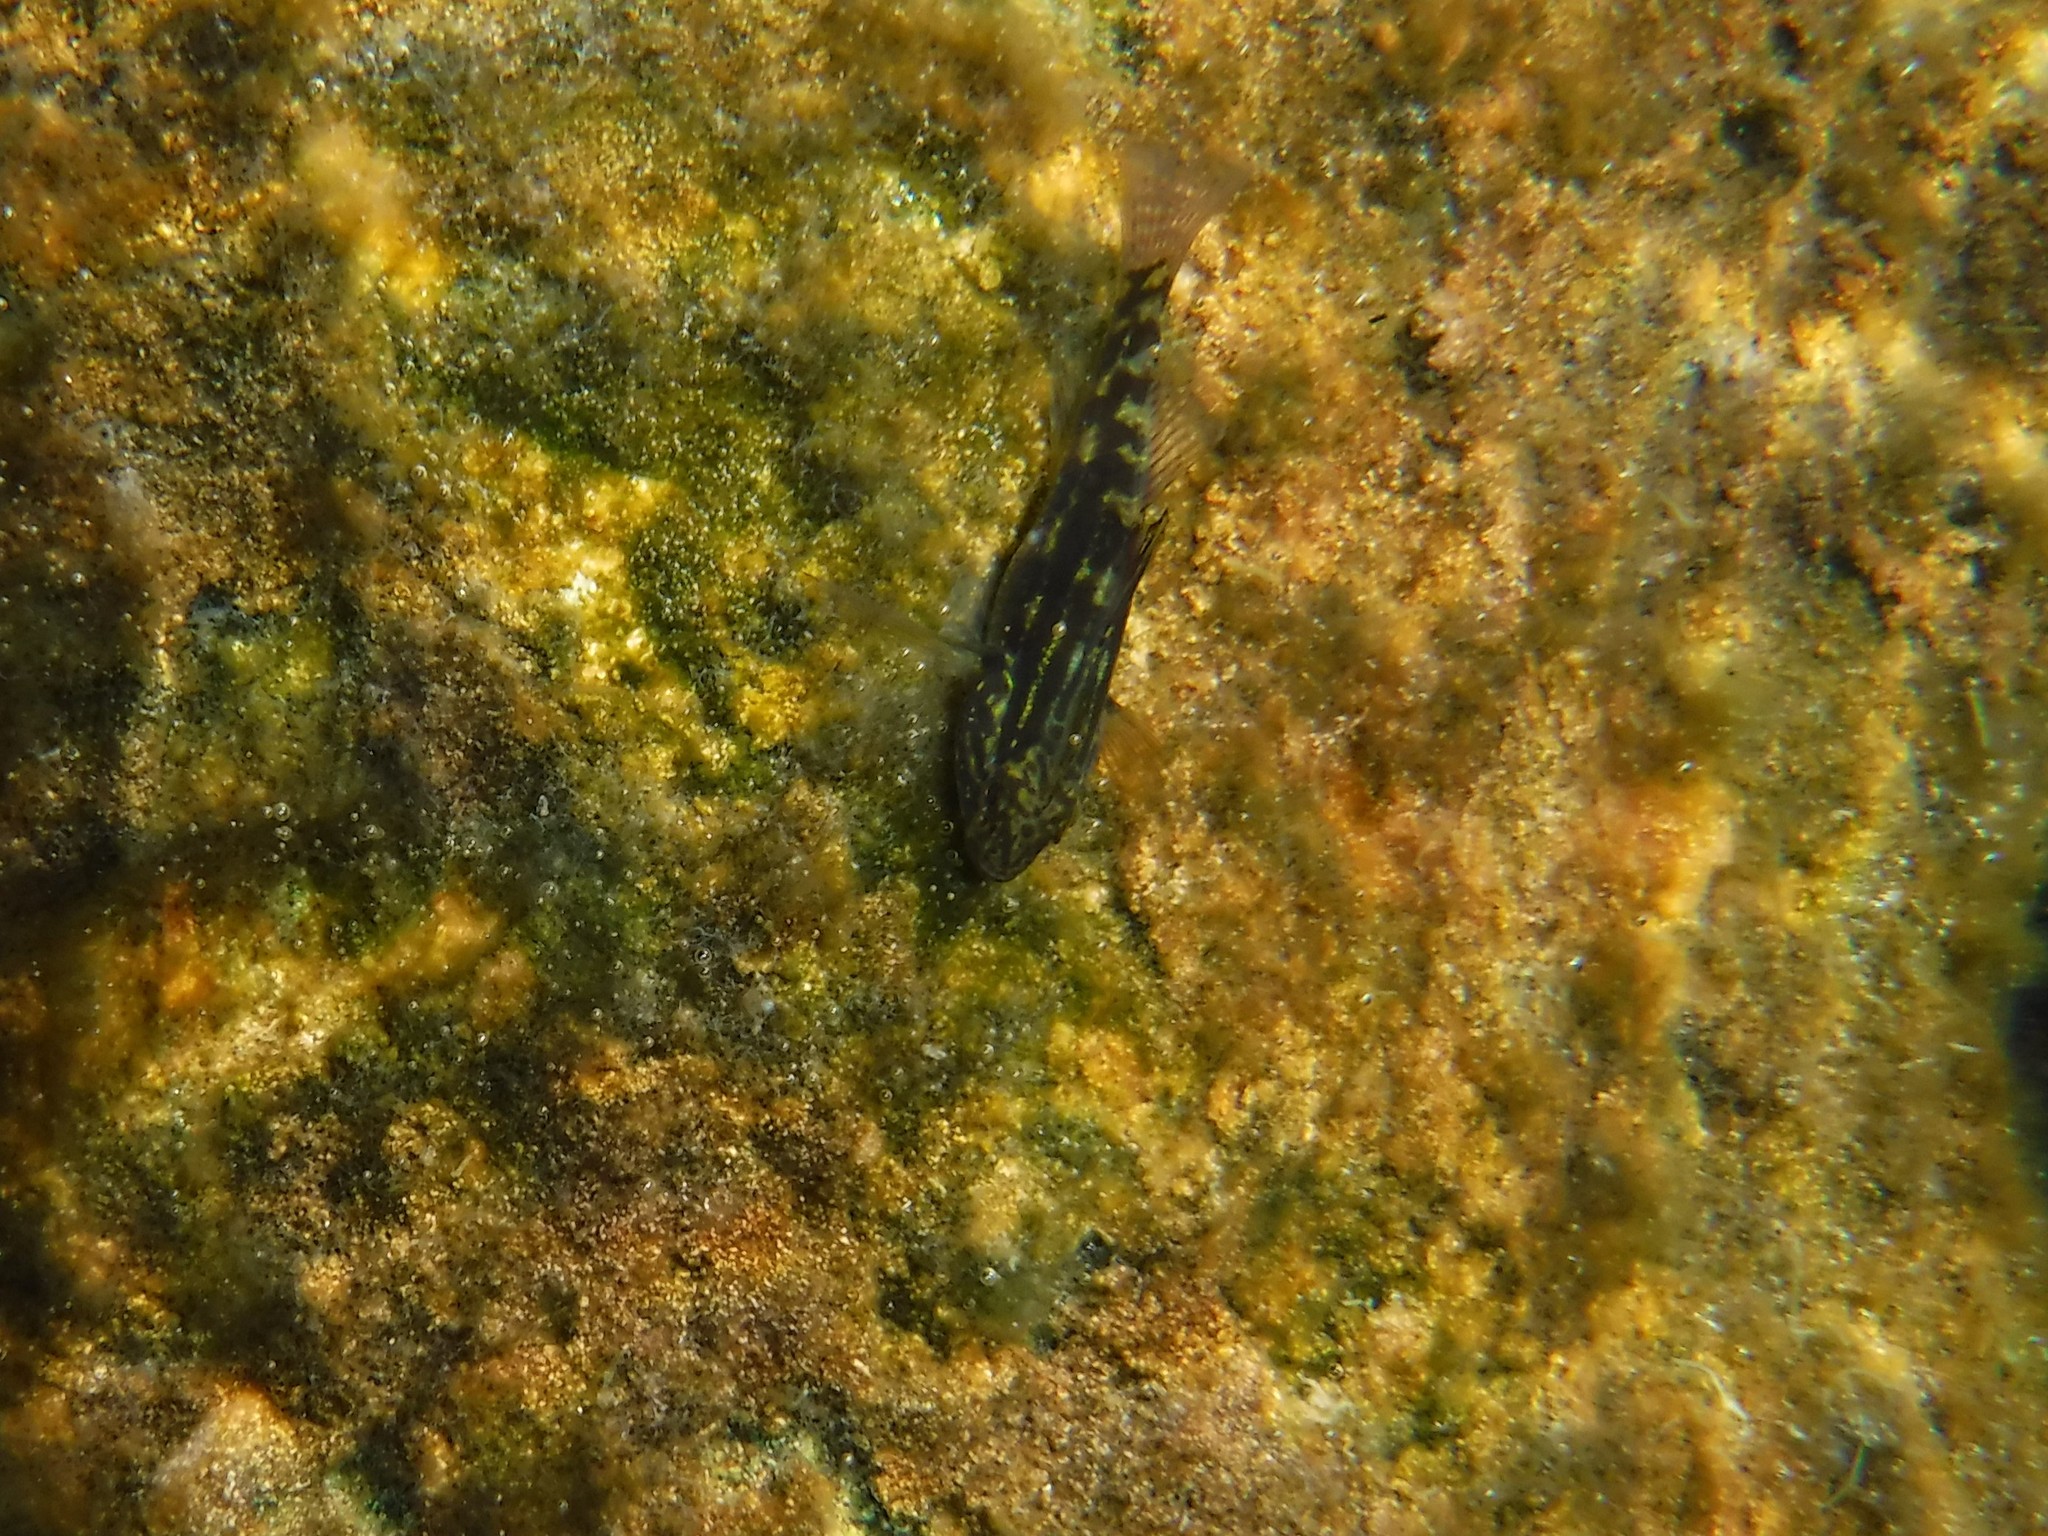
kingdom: Animalia
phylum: Chordata
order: Perciformes
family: Gobiidae
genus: Lophogobius
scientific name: Lophogobius cyprinoides
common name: Crested goby
